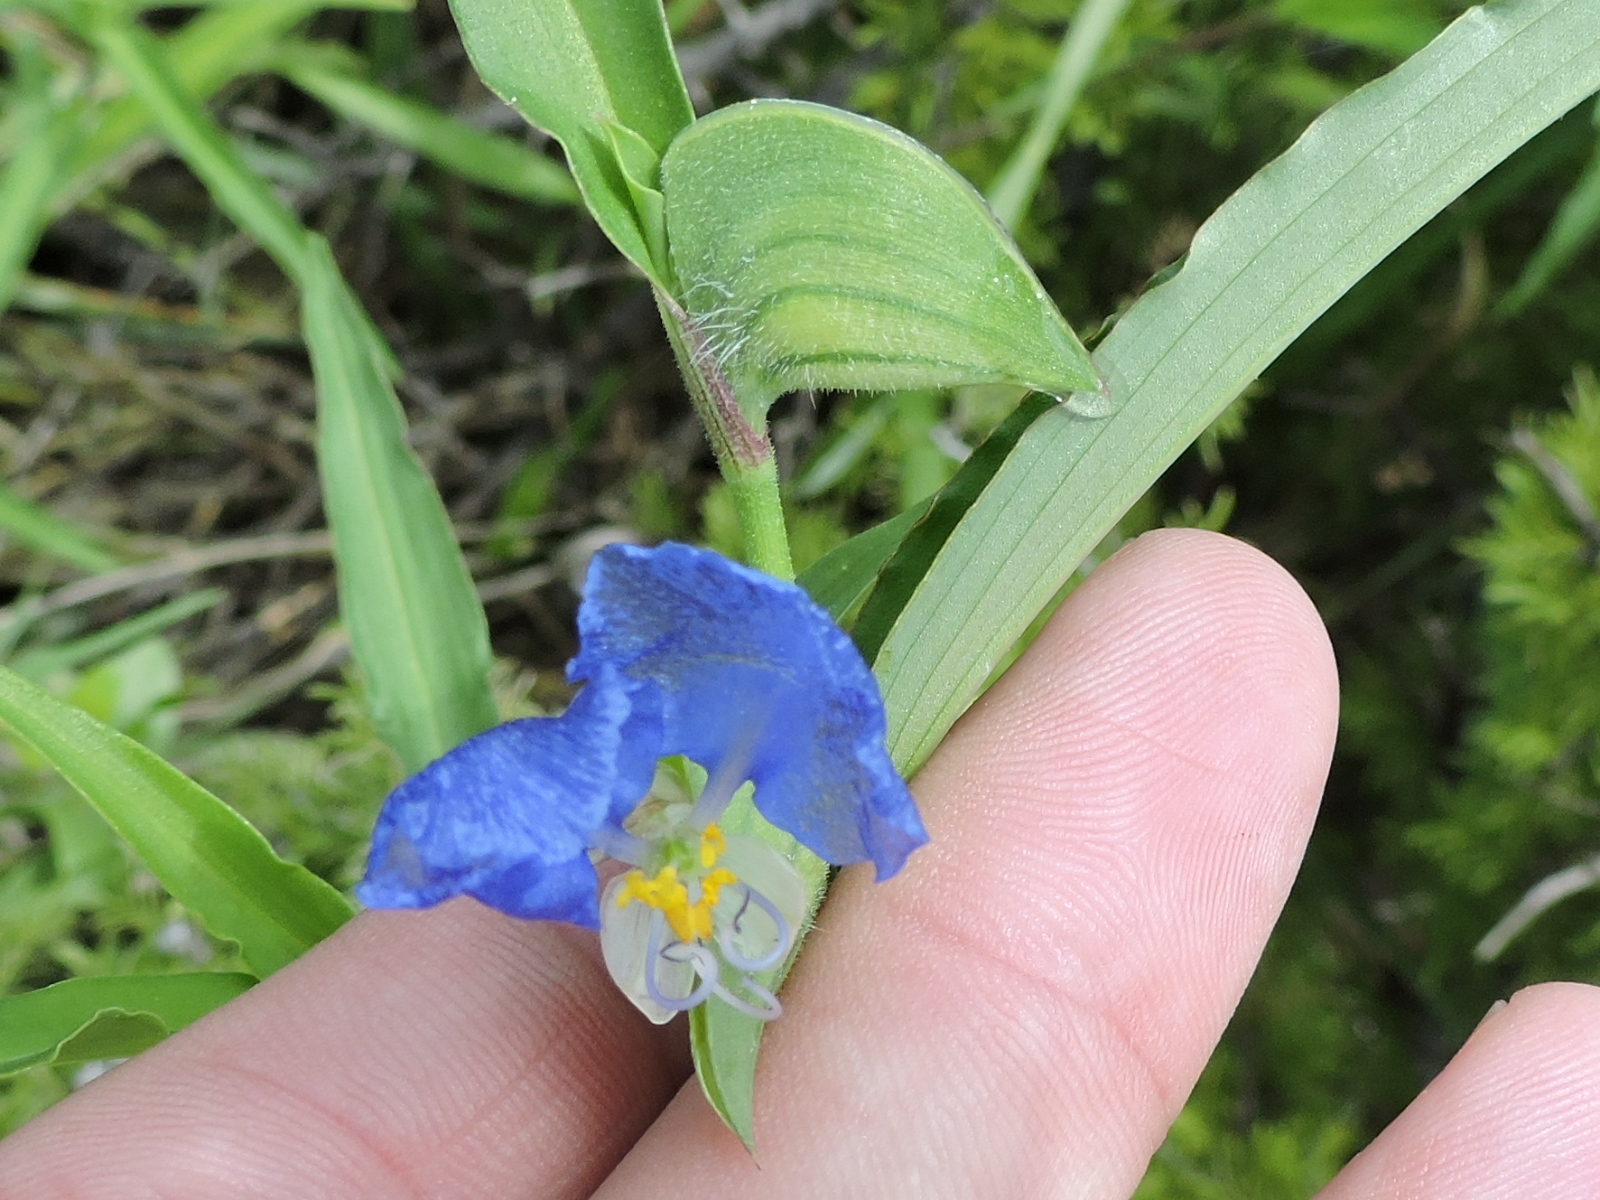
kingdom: Plantae
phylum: Tracheophyta
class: Liliopsida
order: Commelinales
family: Commelinaceae
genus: Commelina
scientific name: Commelina erecta
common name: Blousel blommetjie
